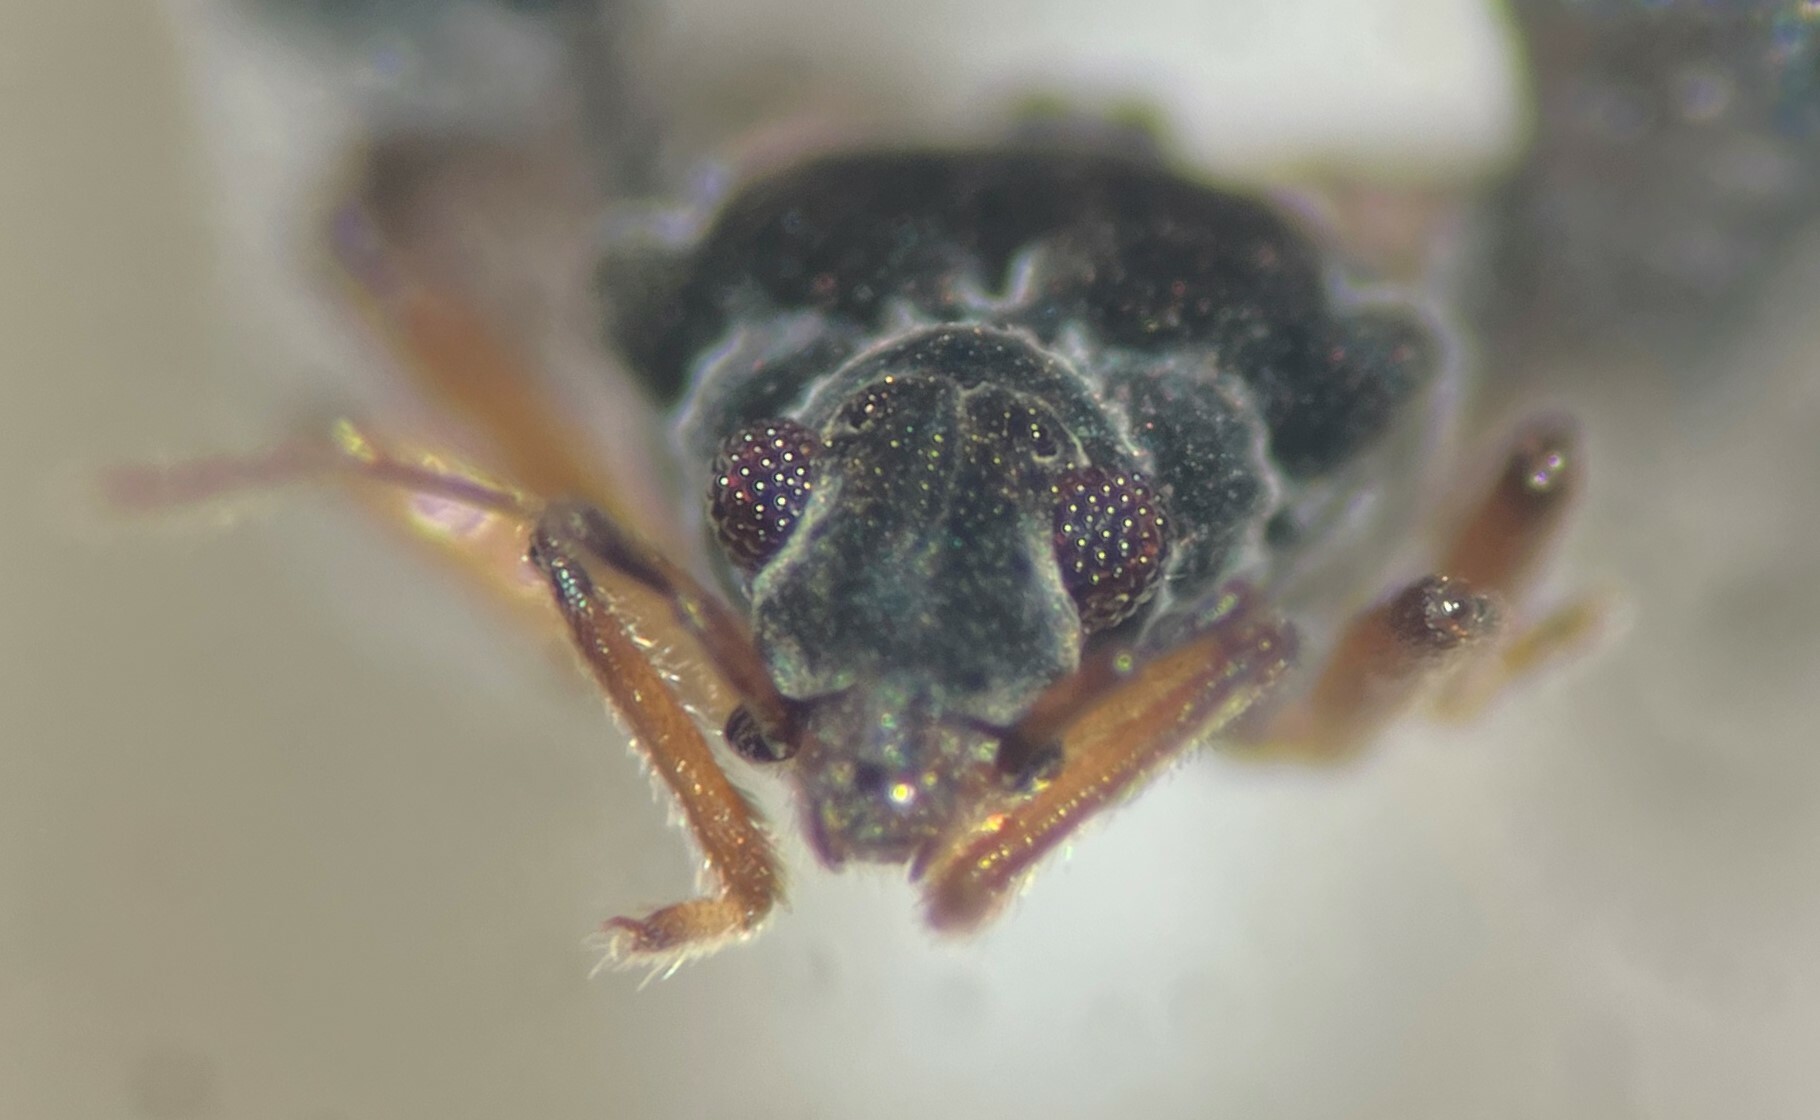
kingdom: Animalia
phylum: Arthropoda
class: Insecta
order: Hemiptera
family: Hebridae
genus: Hebrus
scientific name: Hebrus buenoi
